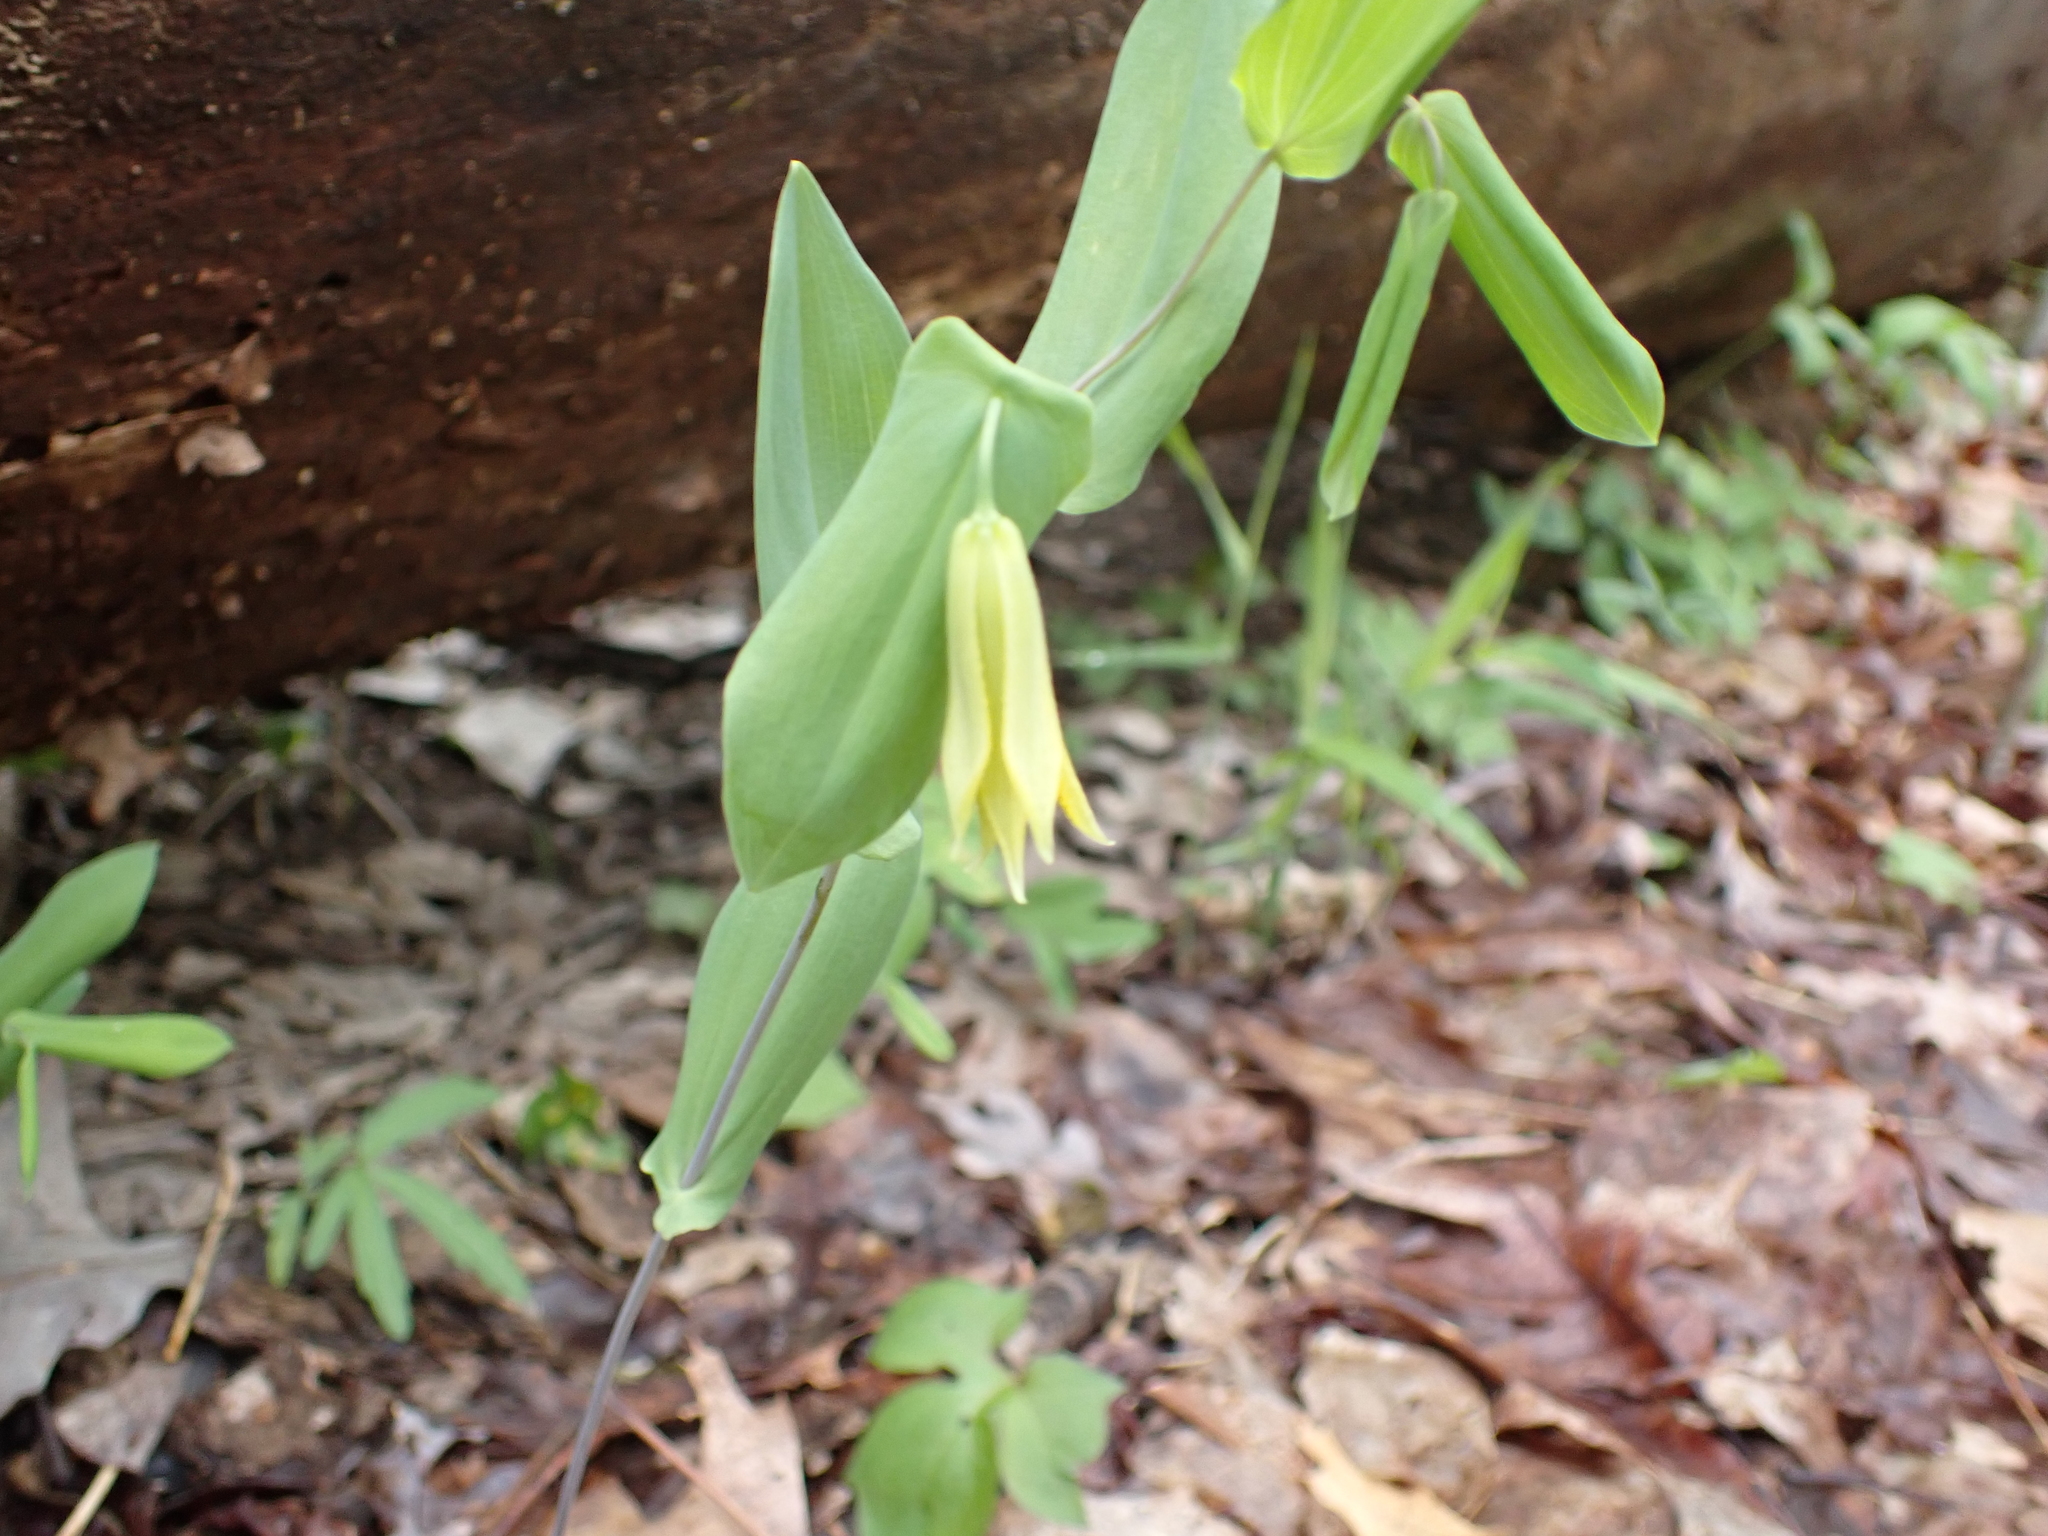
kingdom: Plantae
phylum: Tracheophyta
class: Liliopsida
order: Liliales
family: Colchicaceae
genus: Uvularia
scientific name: Uvularia perfoliata
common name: Perfoliate bellwort
